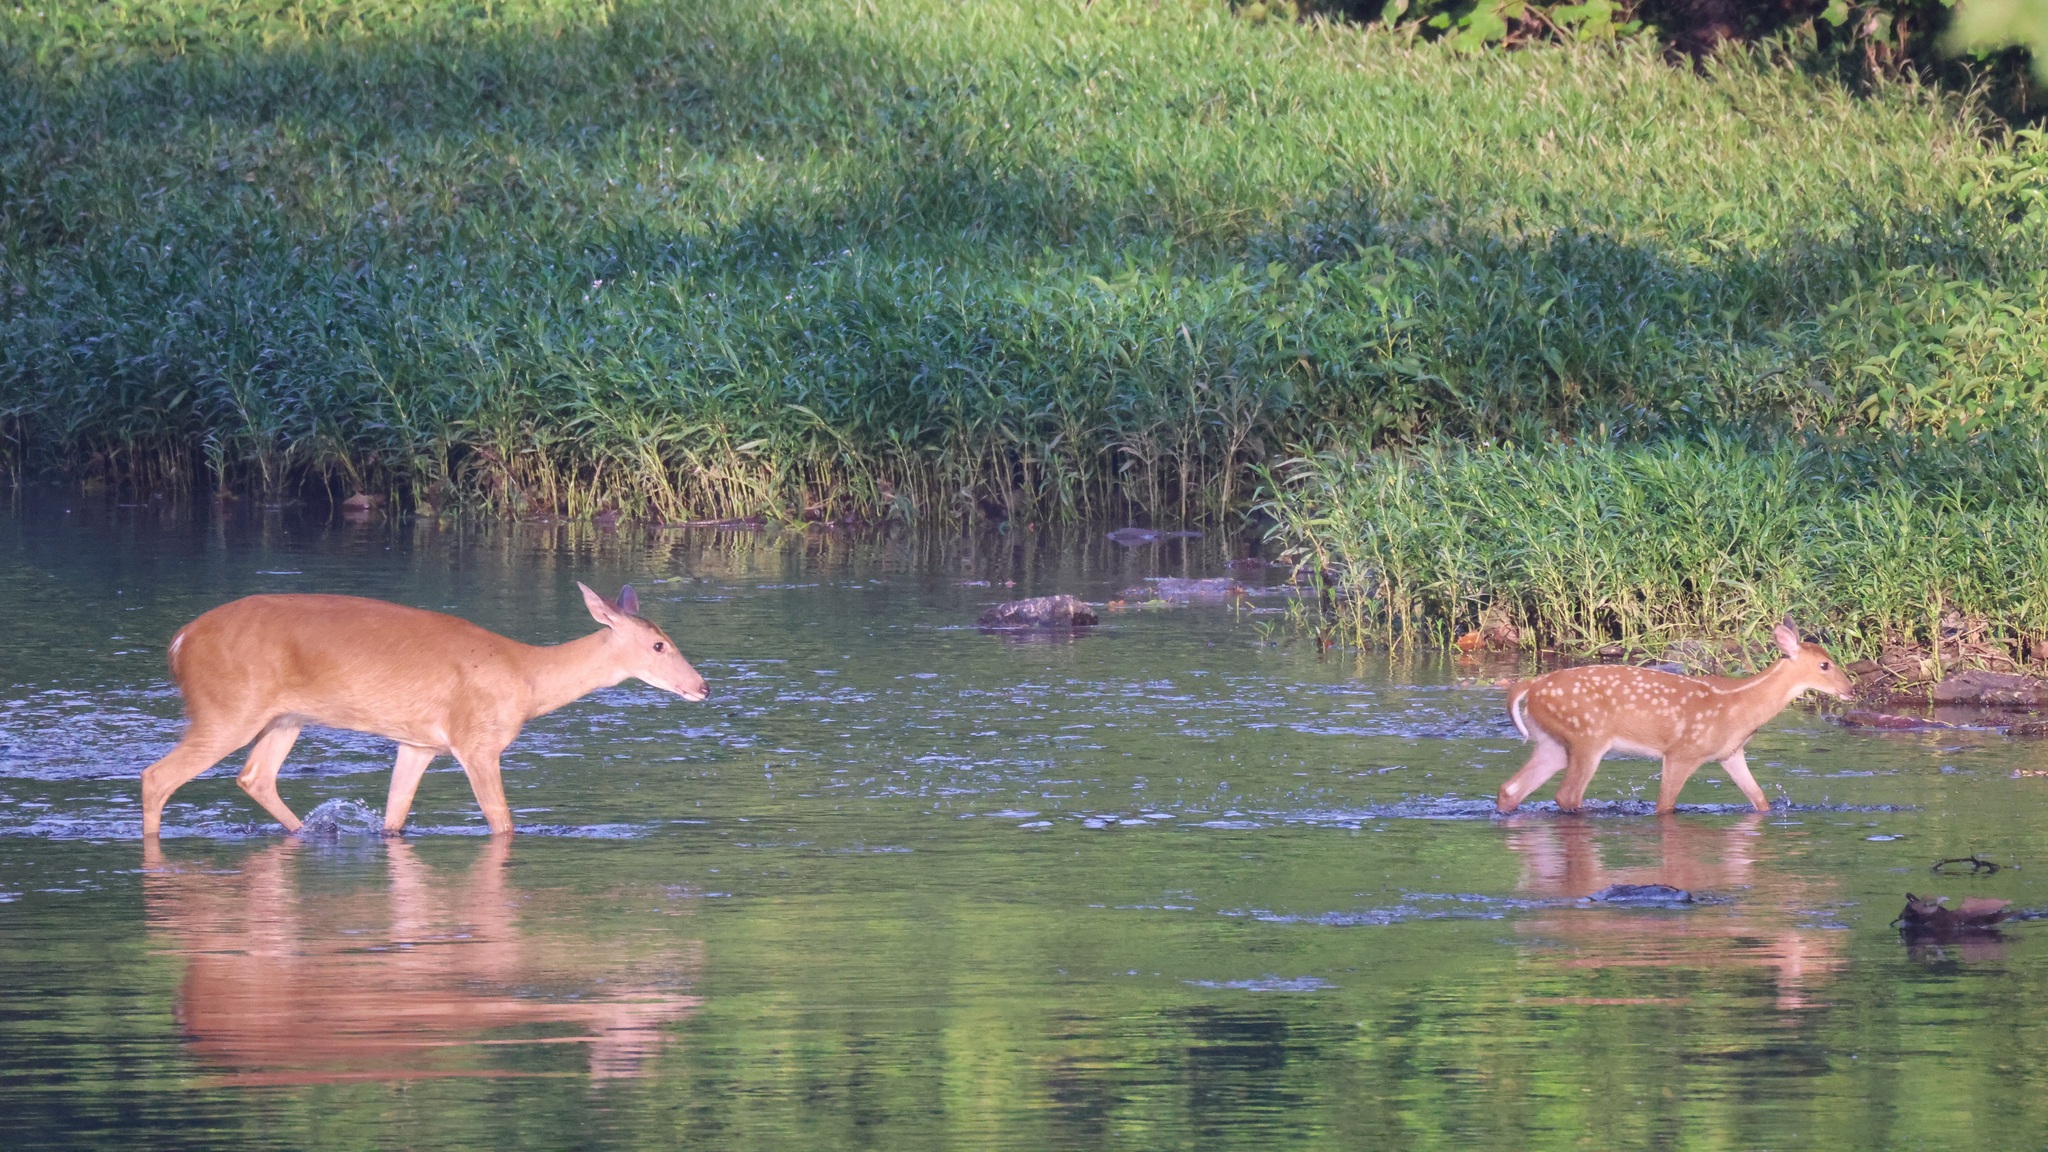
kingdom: Animalia
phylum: Chordata
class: Mammalia
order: Artiodactyla
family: Cervidae
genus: Odocoileus
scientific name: Odocoileus virginianus
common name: White-tailed deer
